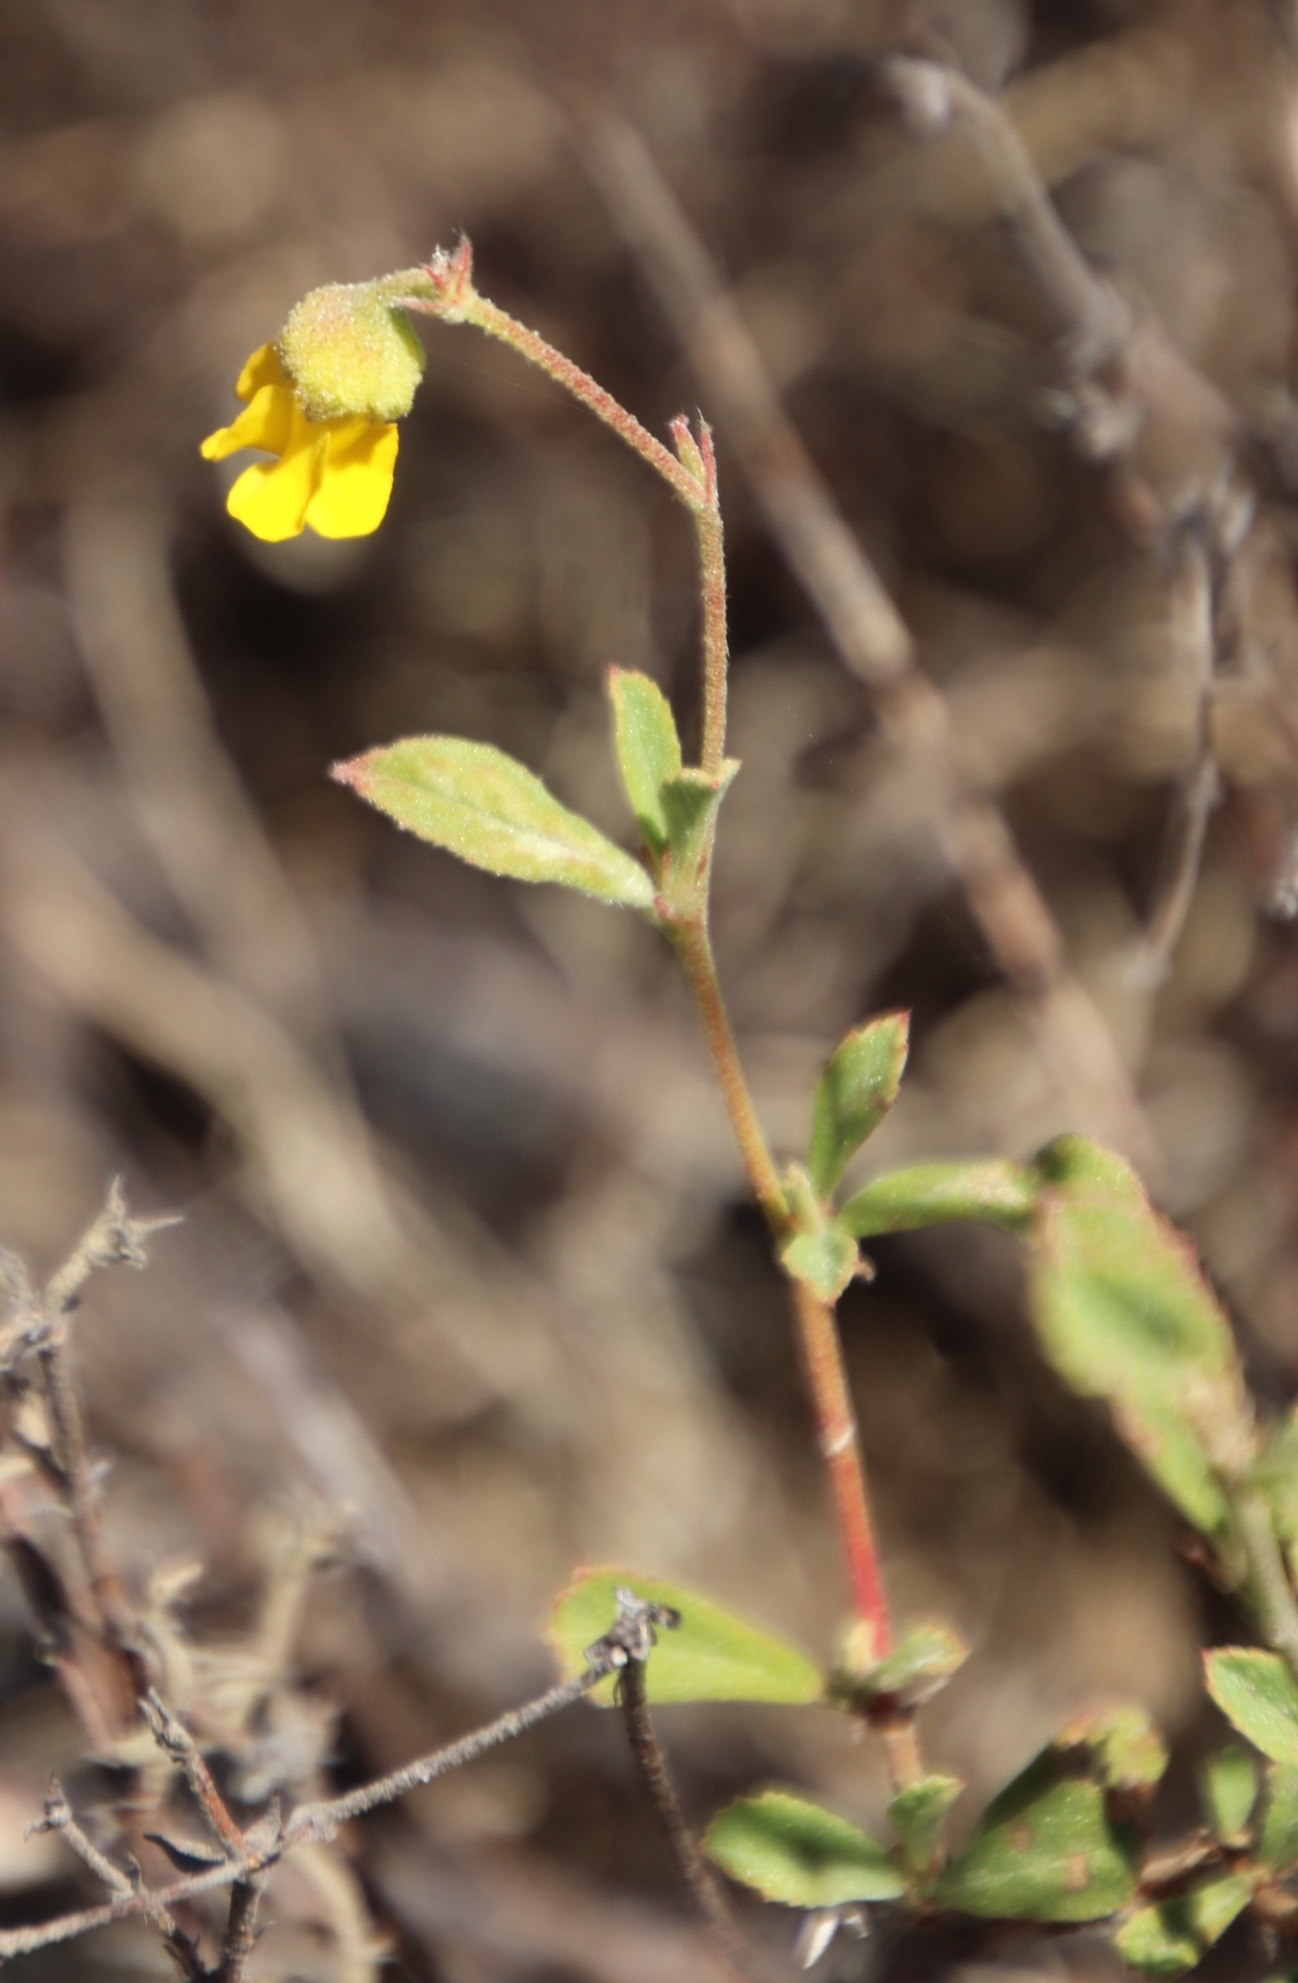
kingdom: Plantae
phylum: Tracheophyta
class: Magnoliopsida
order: Malvales
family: Malvaceae
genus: Hermannia
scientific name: Hermannia multiflora
